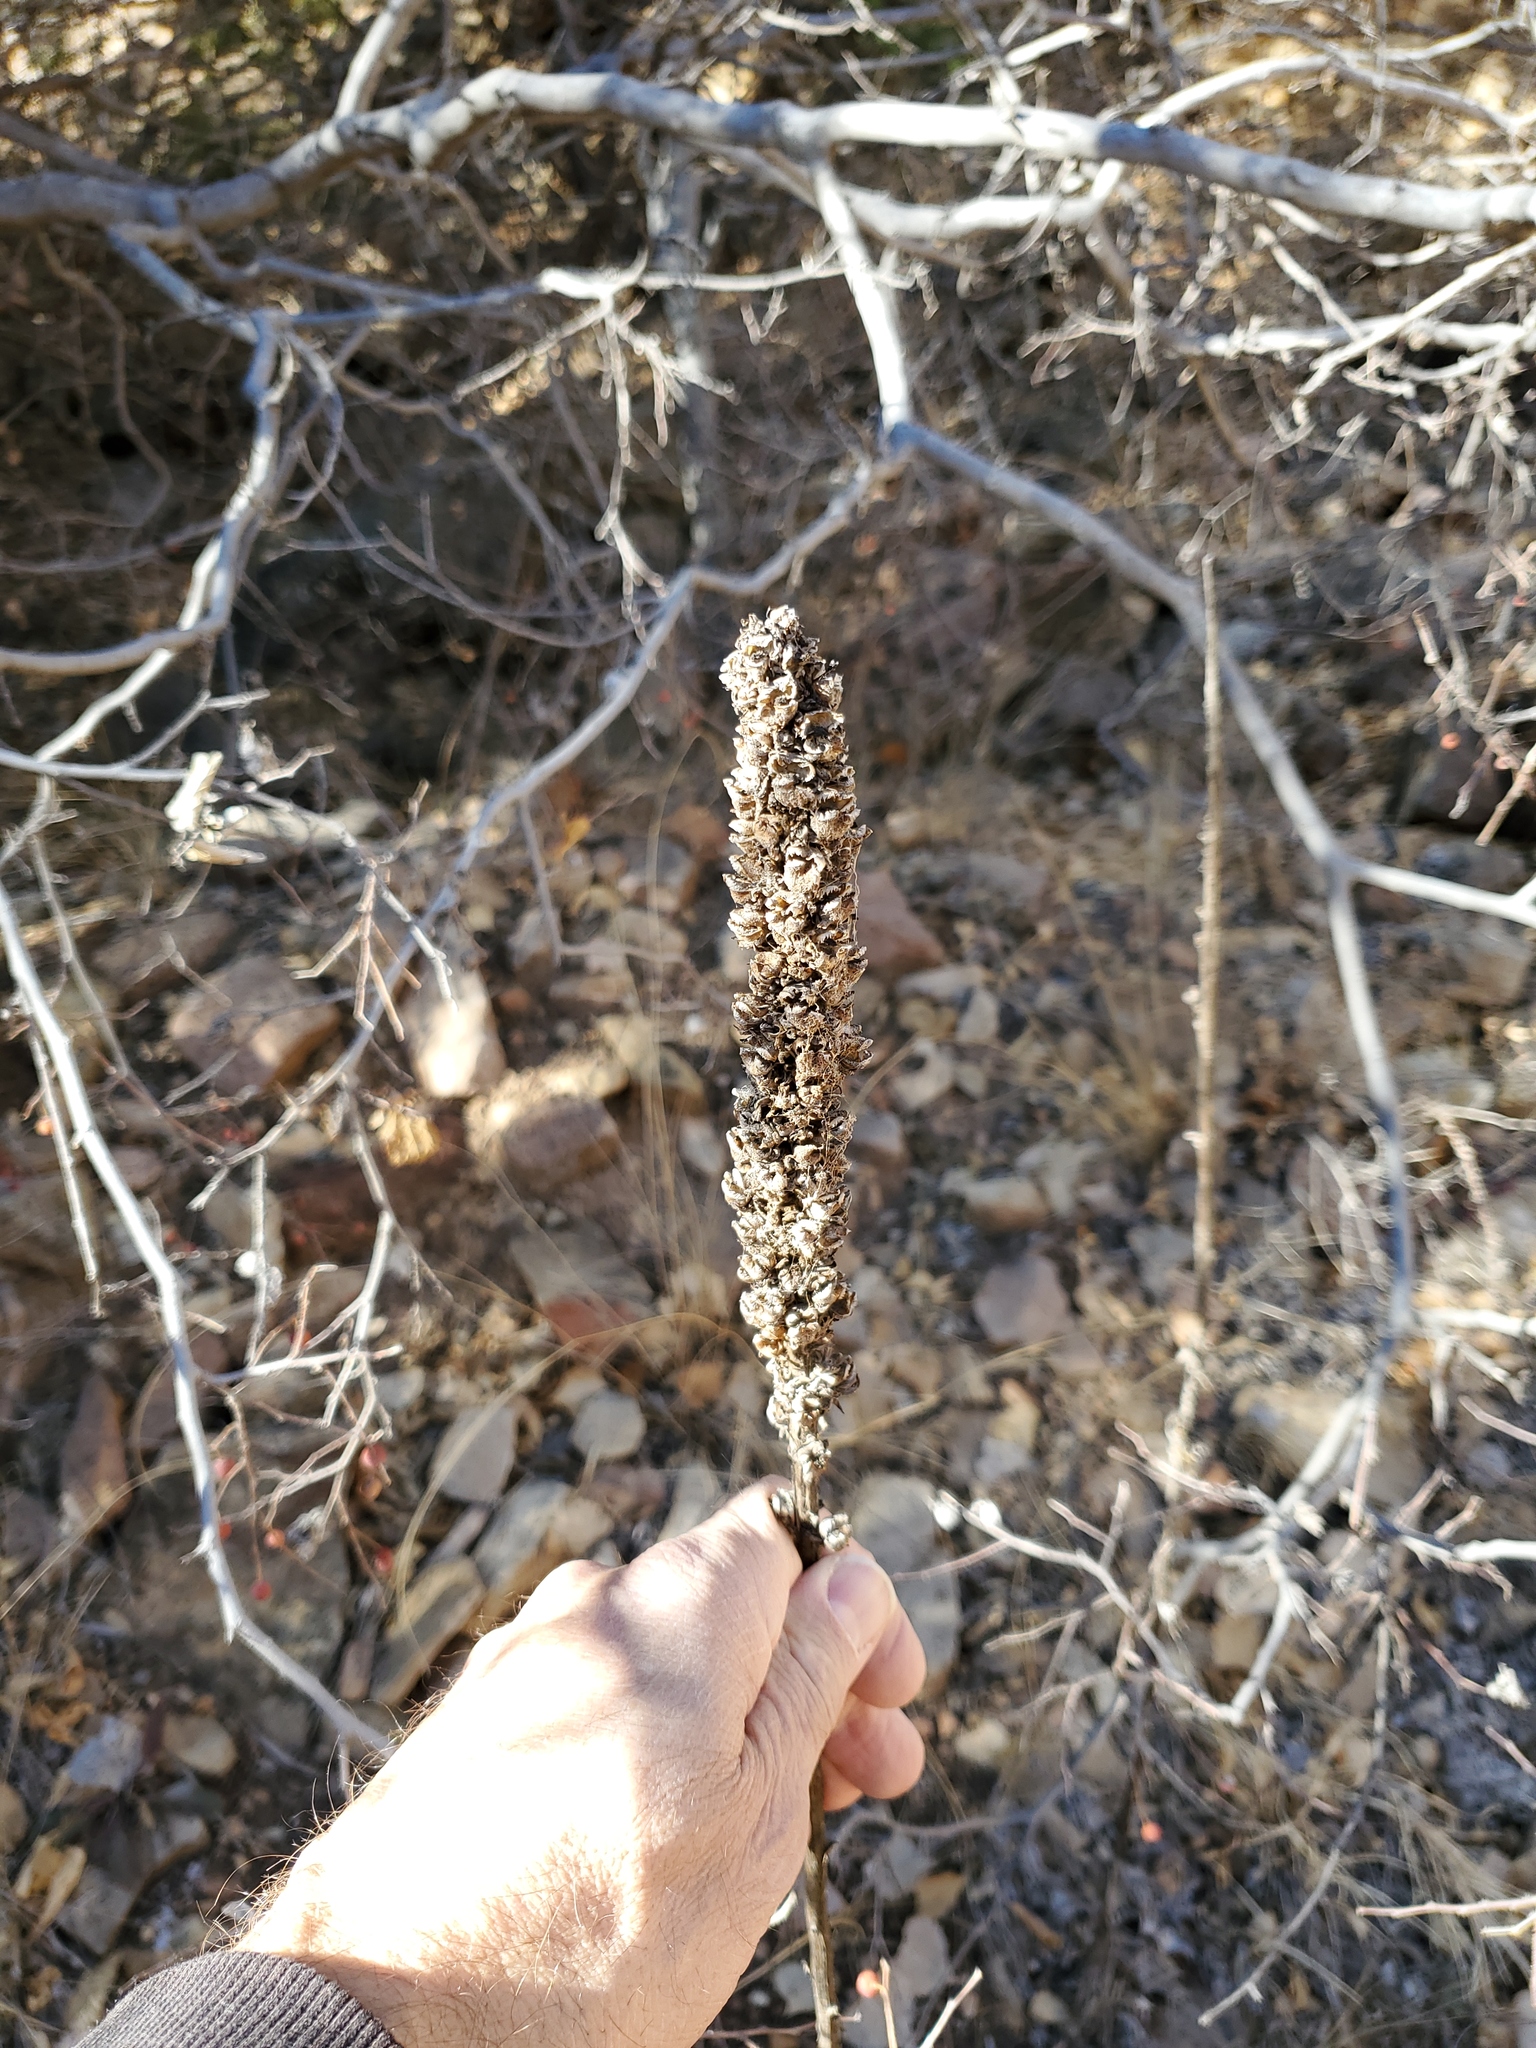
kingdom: Plantae
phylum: Tracheophyta
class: Magnoliopsida
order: Lamiales
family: Scrophulariaceae
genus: Verbascum
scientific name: Verbascum thapsus
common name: Common mullein
